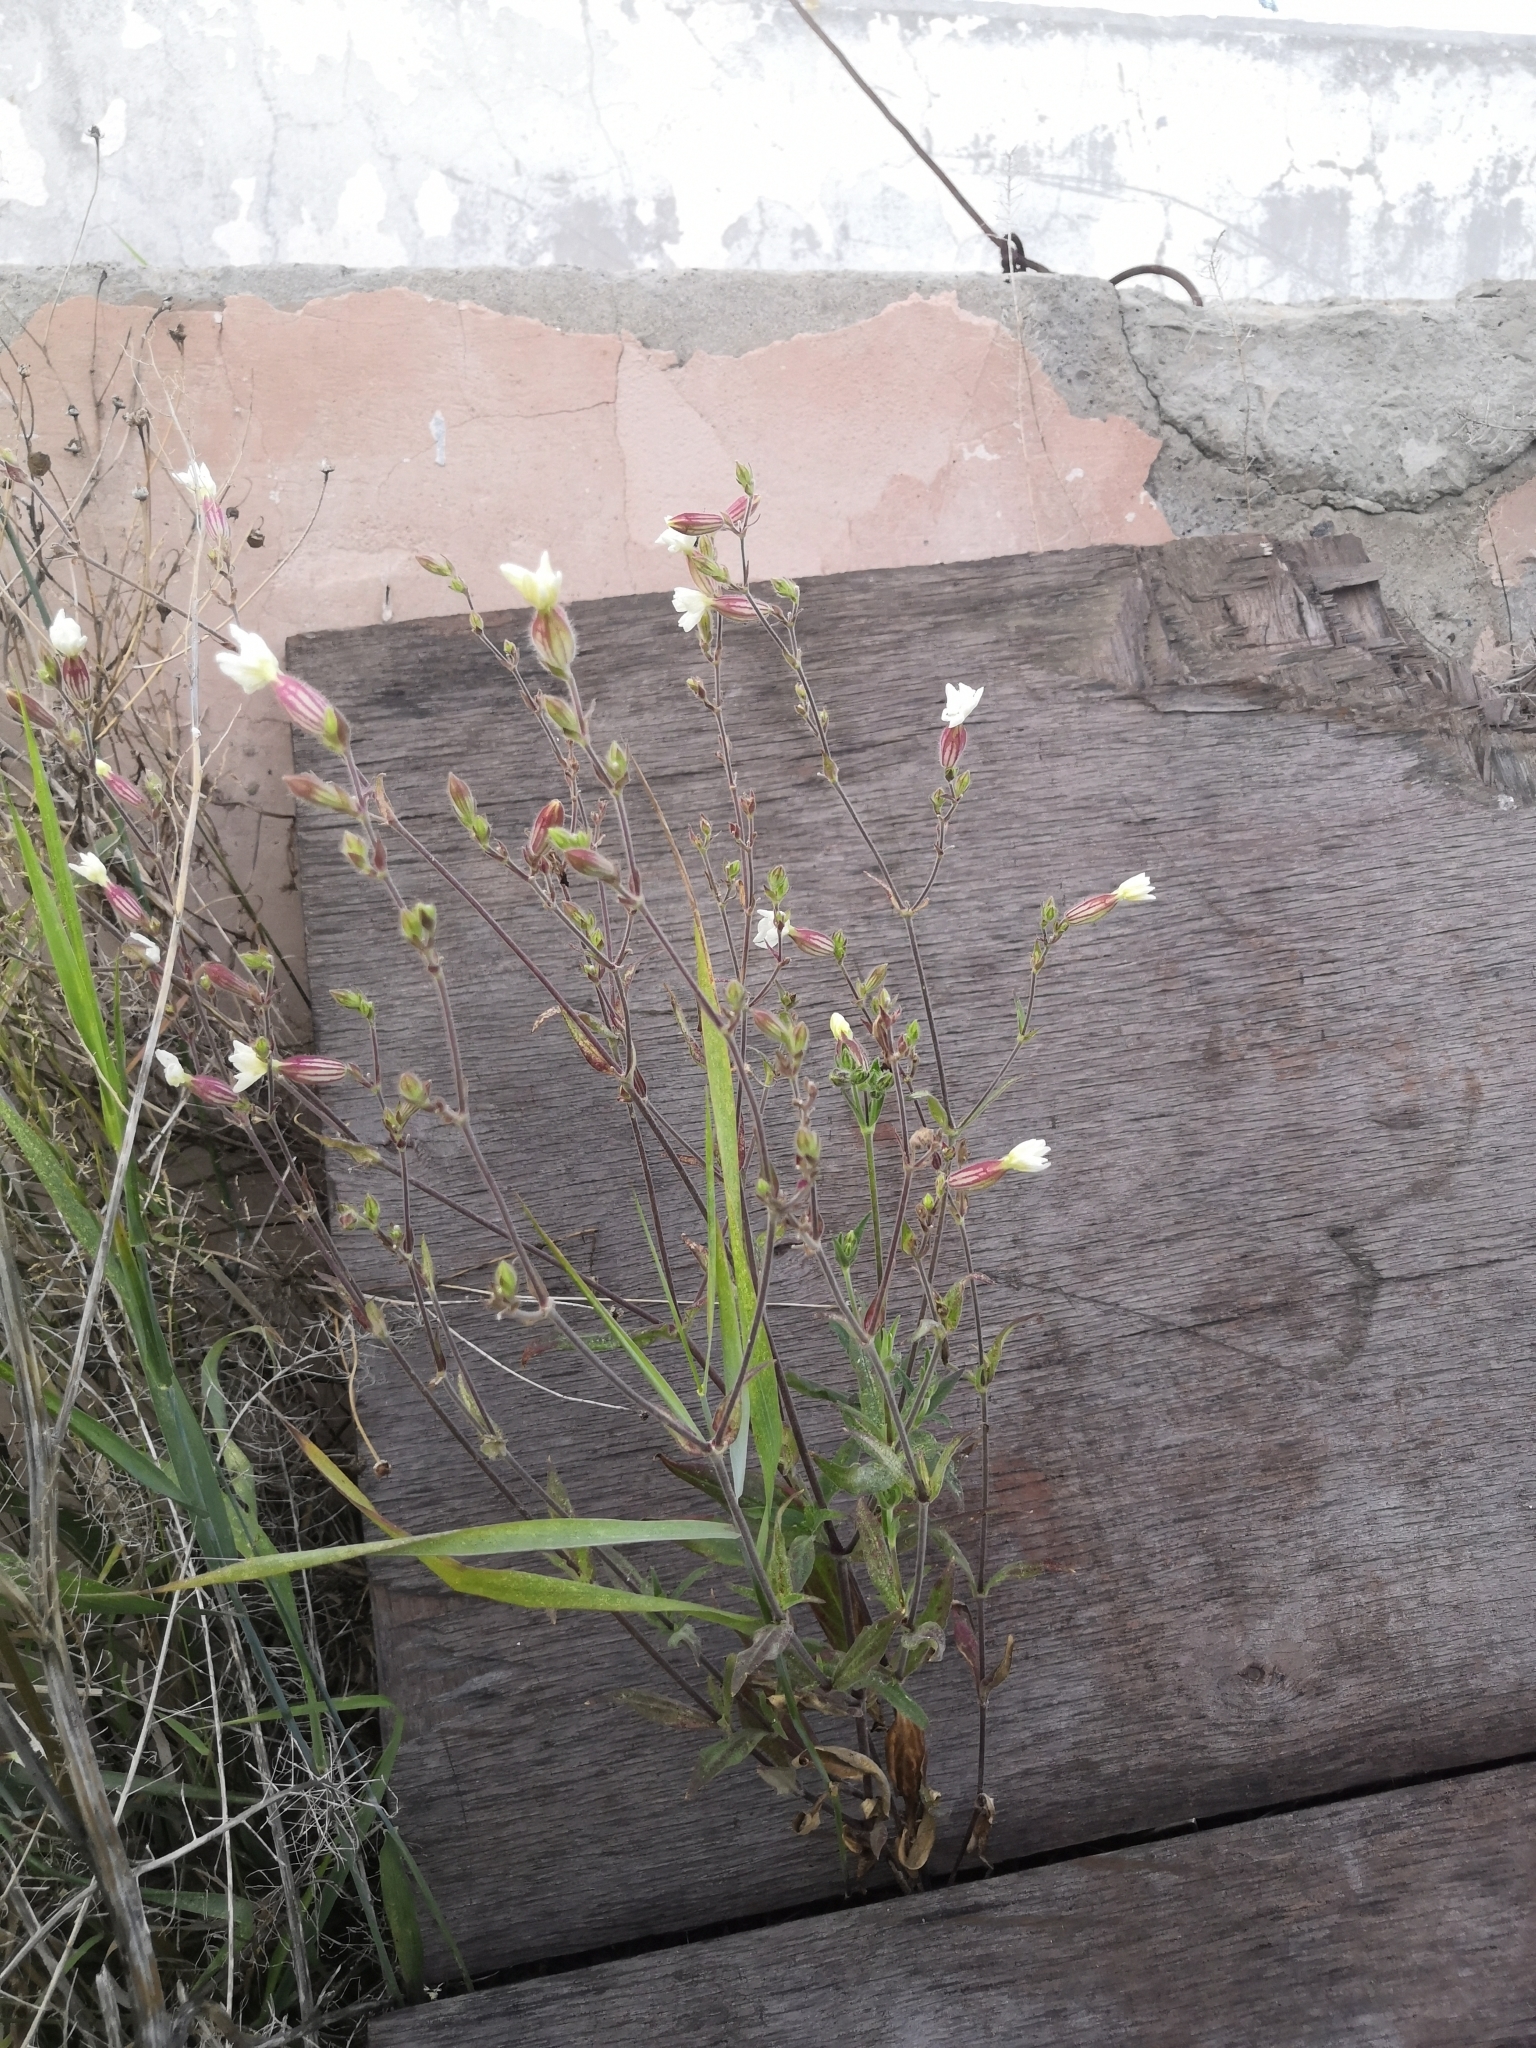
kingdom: Plantae
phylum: Tracheophyta
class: Magnoliopsida
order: Caryophyllales
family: Caryophyllaceae
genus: Silene
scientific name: Silene latifolia
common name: White campion
